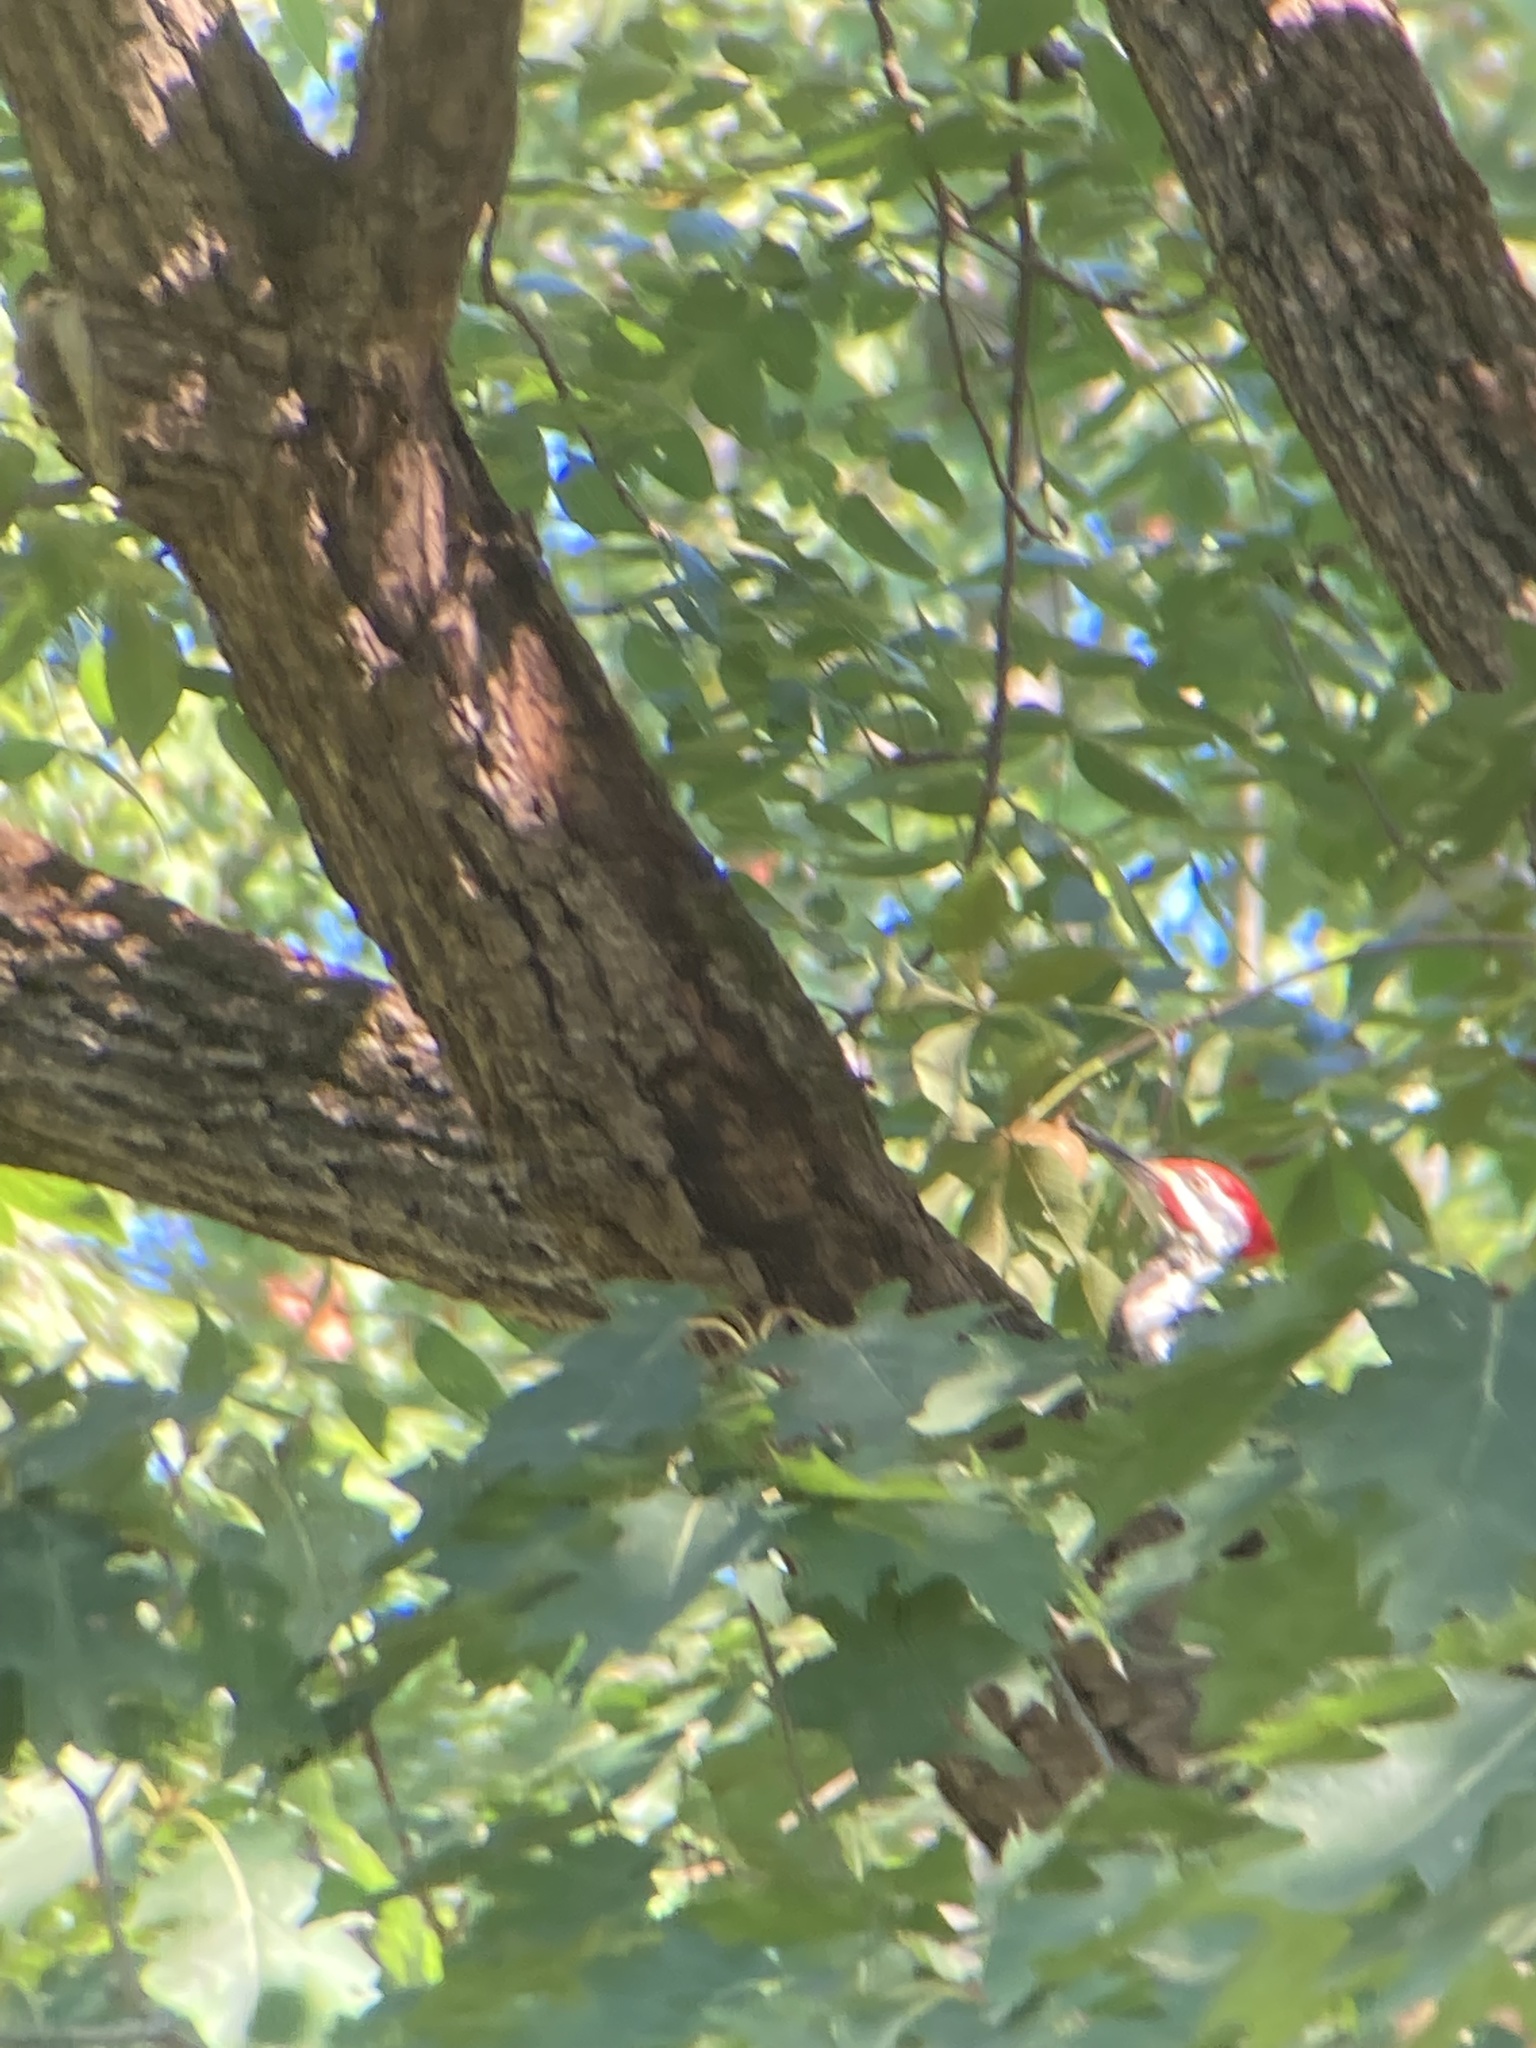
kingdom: Animalia
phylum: Chordata
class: Aves
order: Piciformes
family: Picidae
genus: Dryocopus
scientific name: Dryocopus pileatus
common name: Pileated woodpecker
